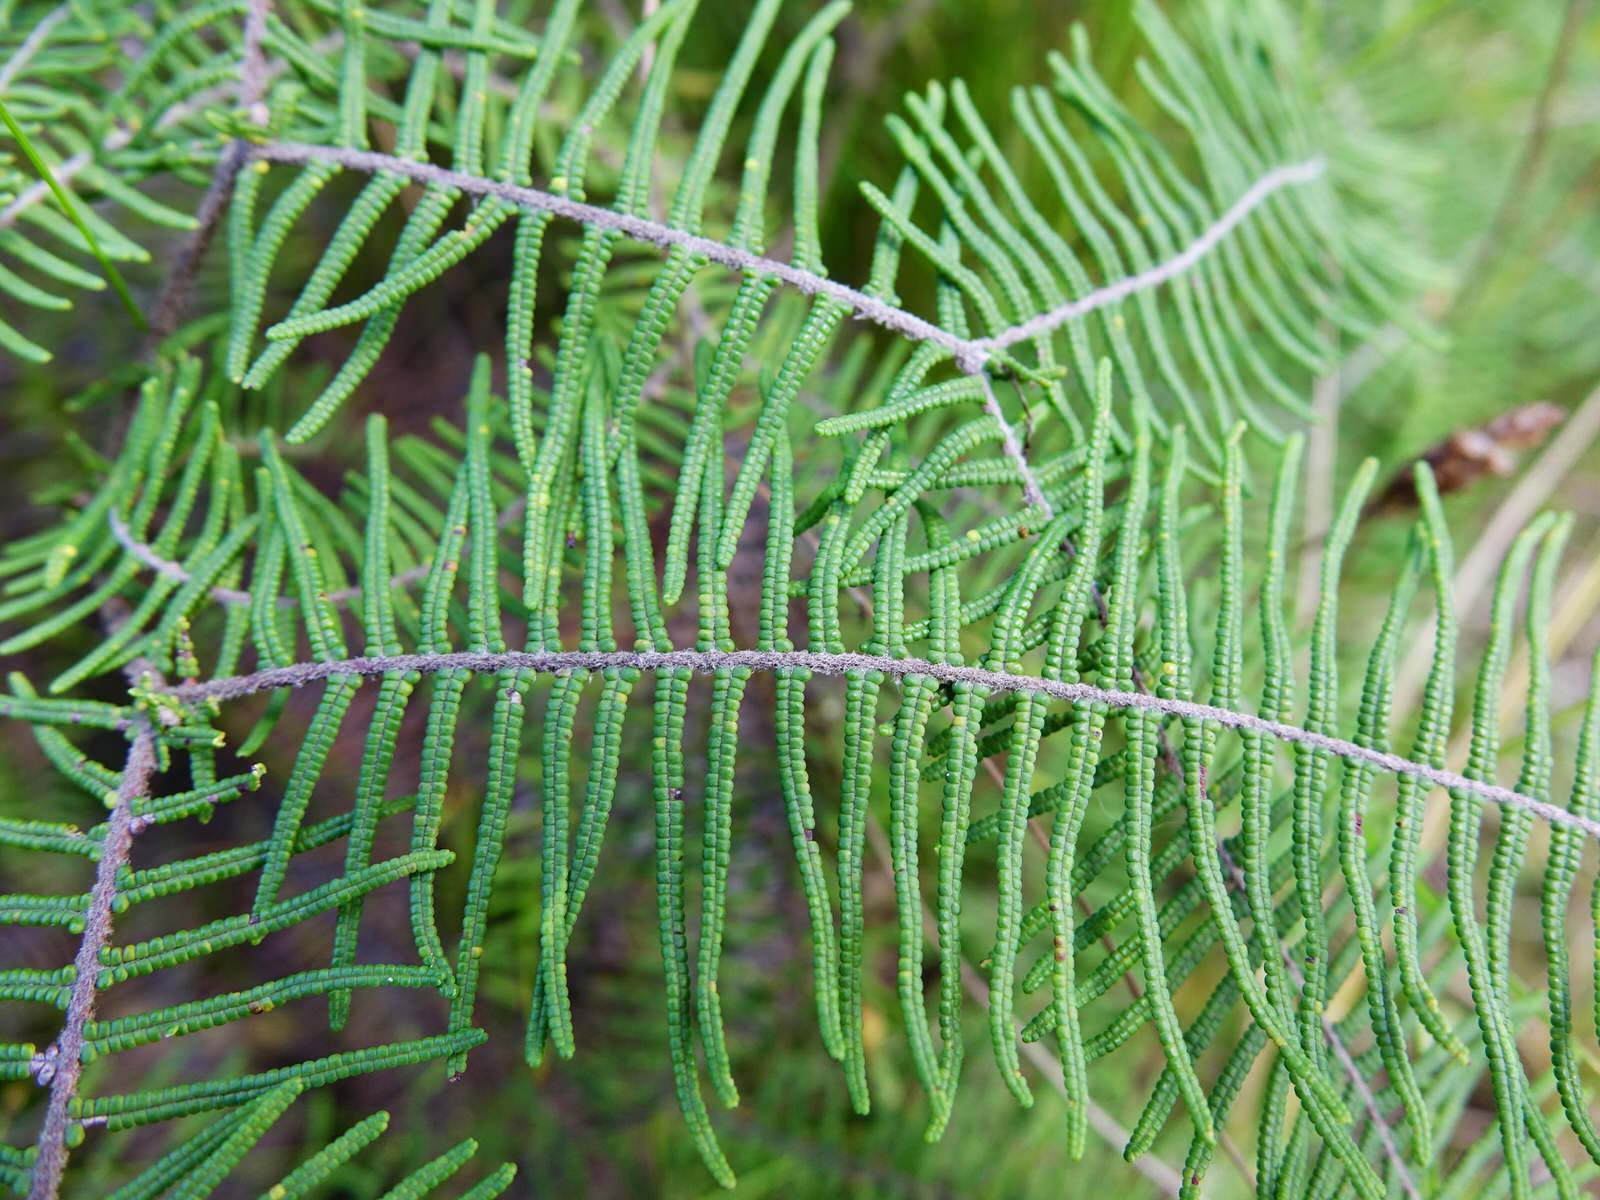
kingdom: Plantae
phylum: Tracheophyta
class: Polypodiopsida
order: Gleicheniales
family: Gleicheniaceae
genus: Gleichenia
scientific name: Gleichenia dicarpa
